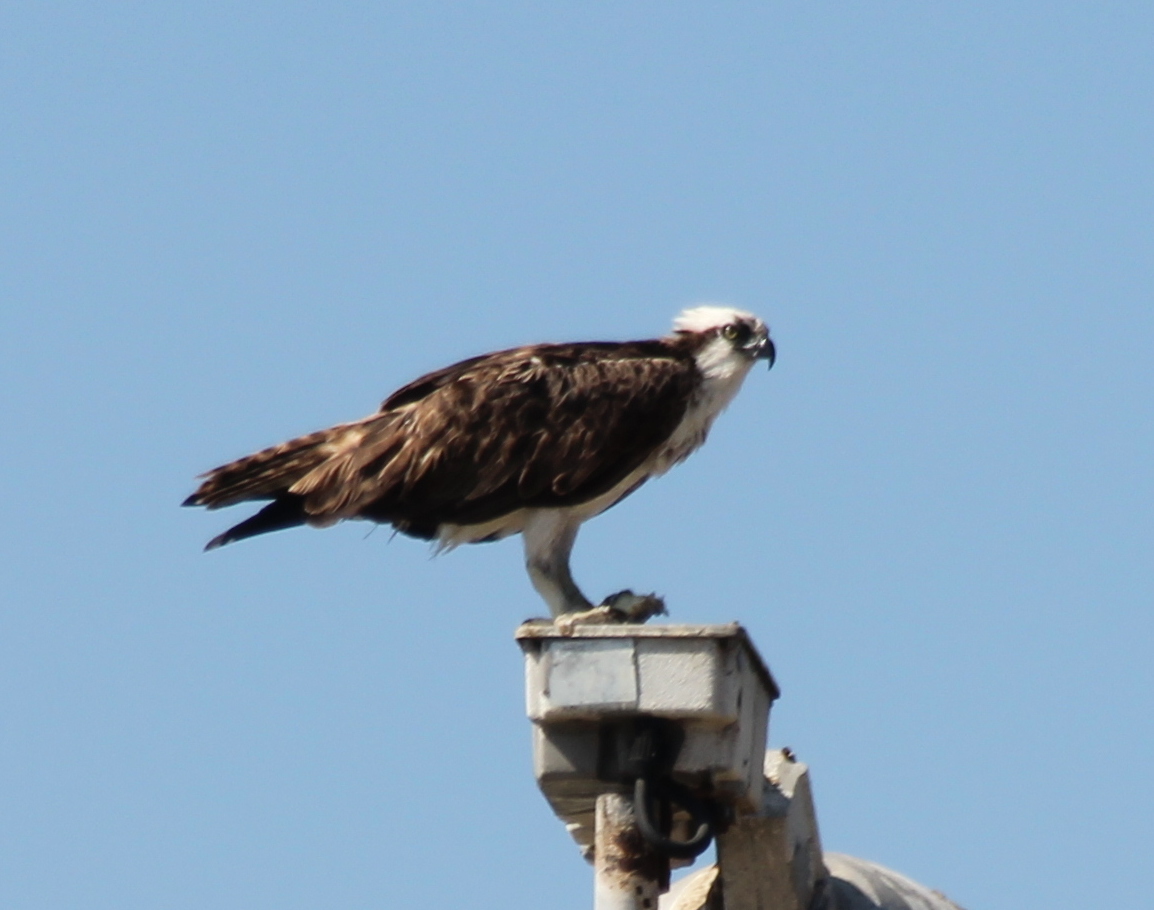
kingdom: Animalia
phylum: Chordata
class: Aves
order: Accipitriformes
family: Pandionidae
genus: Pandion
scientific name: Pandion haliaetus
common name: Osprey
